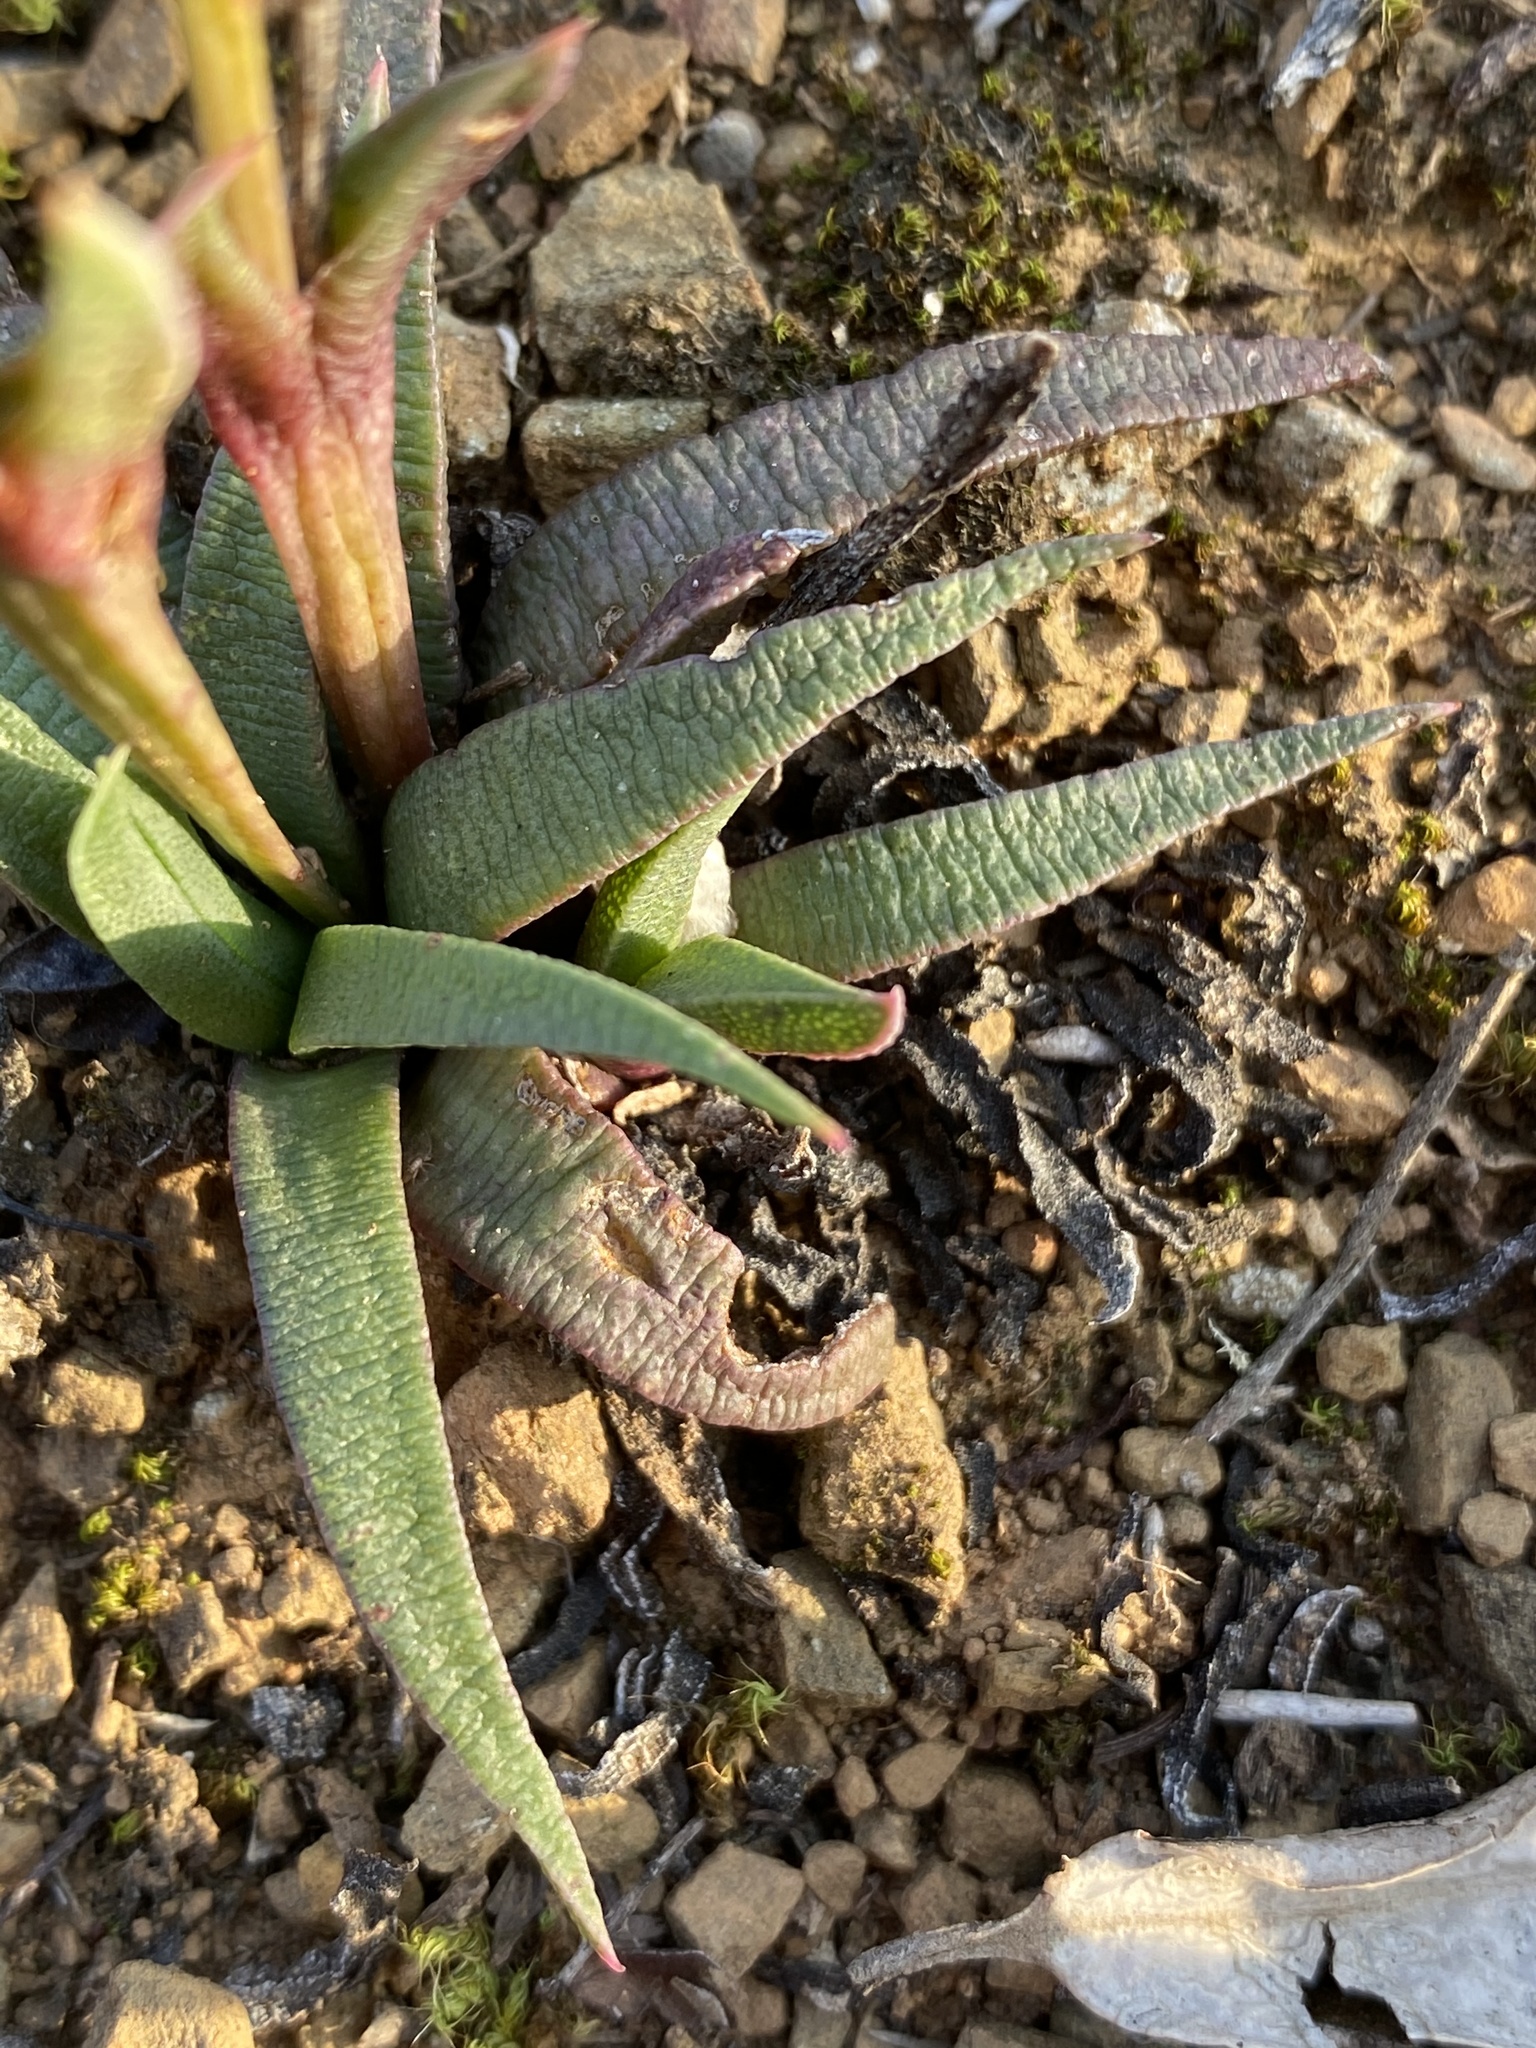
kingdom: Plantae
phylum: Tracheophyta
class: Magnoliopsida
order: Caryophyllales
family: Aizoaceae
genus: Bergeranthus
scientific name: Bergeranthus multiceps
